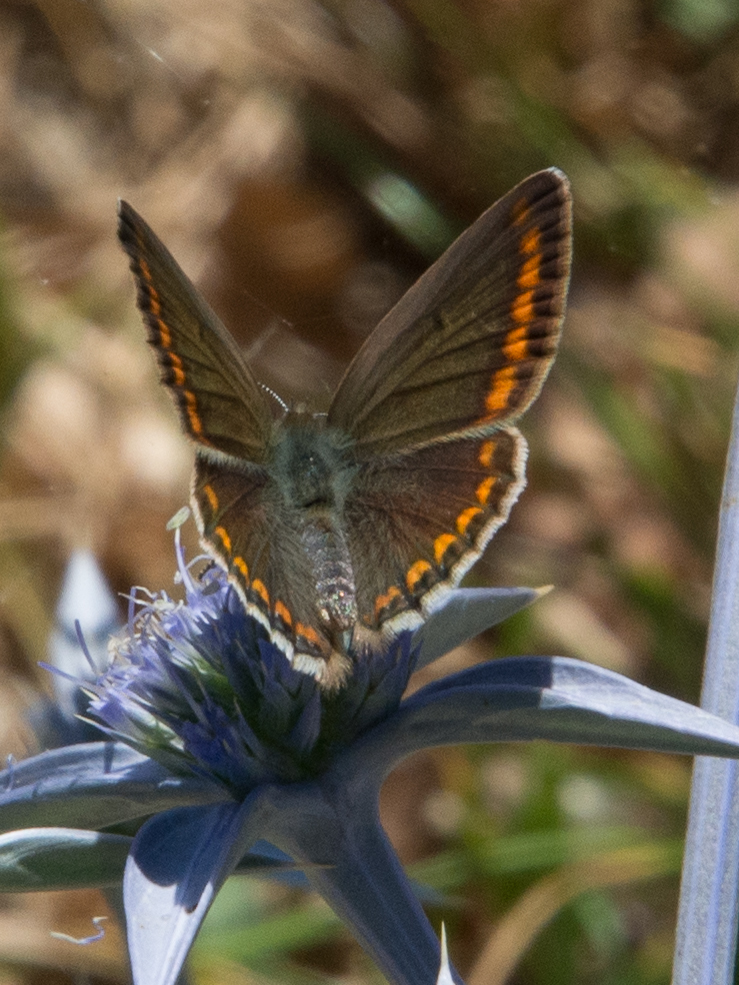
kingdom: Animalia
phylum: Arthropoda
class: Insecta
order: Lepidoptera
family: Lycaenidae
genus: Aricia
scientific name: Aricia agestis
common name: Brown argus
